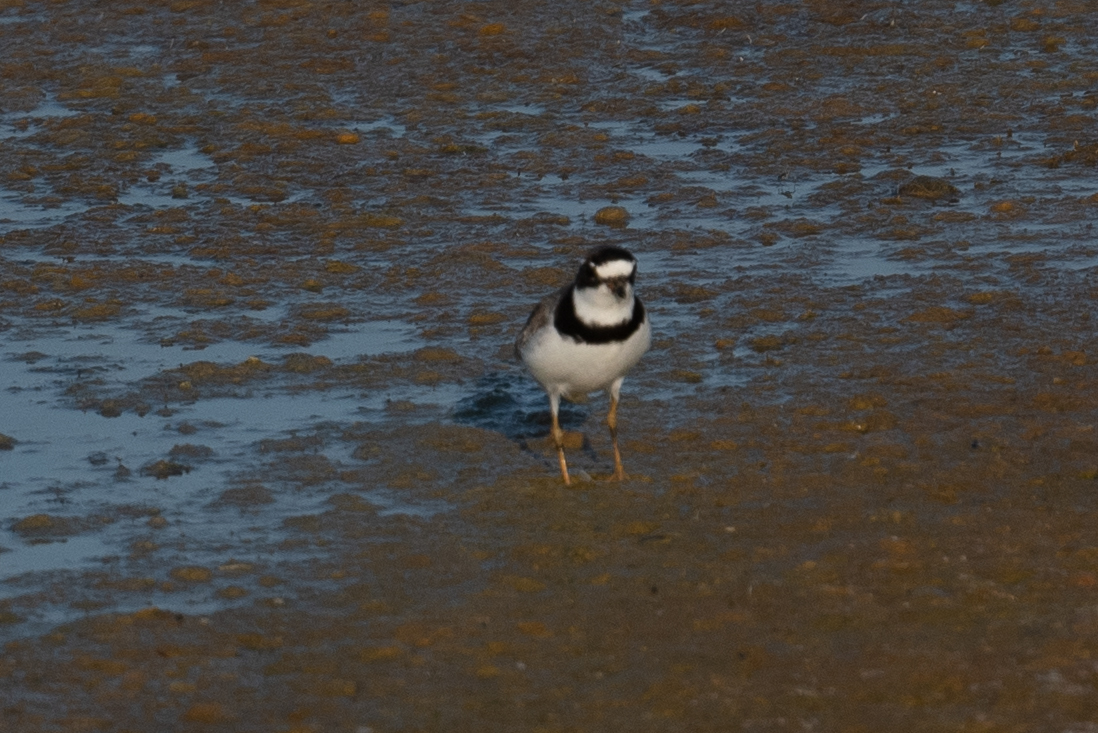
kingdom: Animalia
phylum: Chordata
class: Aves
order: Charadriiformes
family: Charadriidae
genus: Charadrius
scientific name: Charadrius semipalmatus
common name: Semipalmated plover
